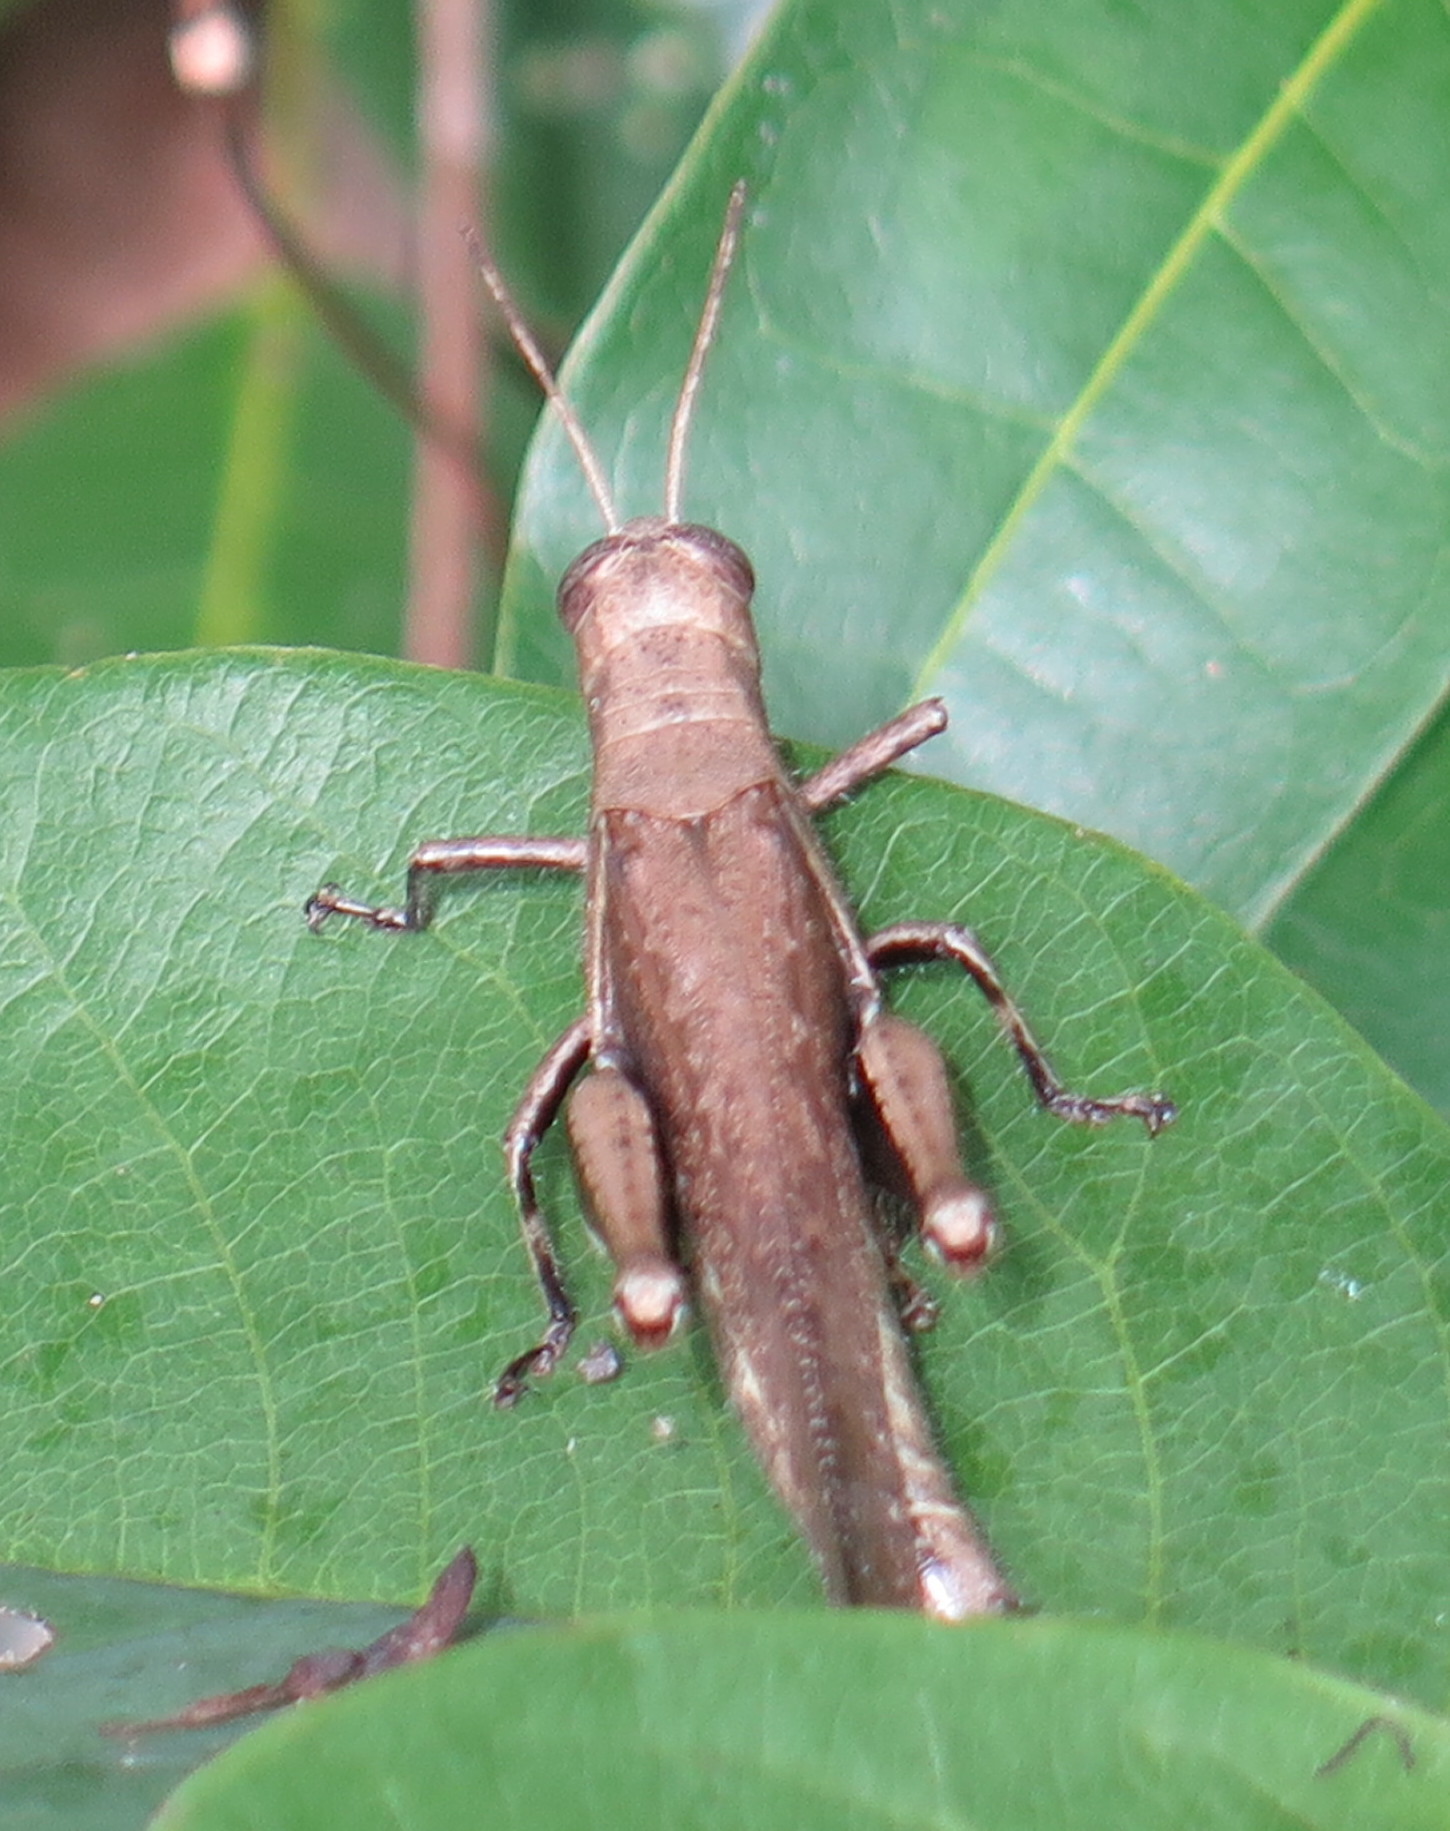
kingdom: Animalia
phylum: Arthropoda
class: Insecta
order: Orthoptera
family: Acrididae
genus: Abracris
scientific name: Abracris flavolineata
